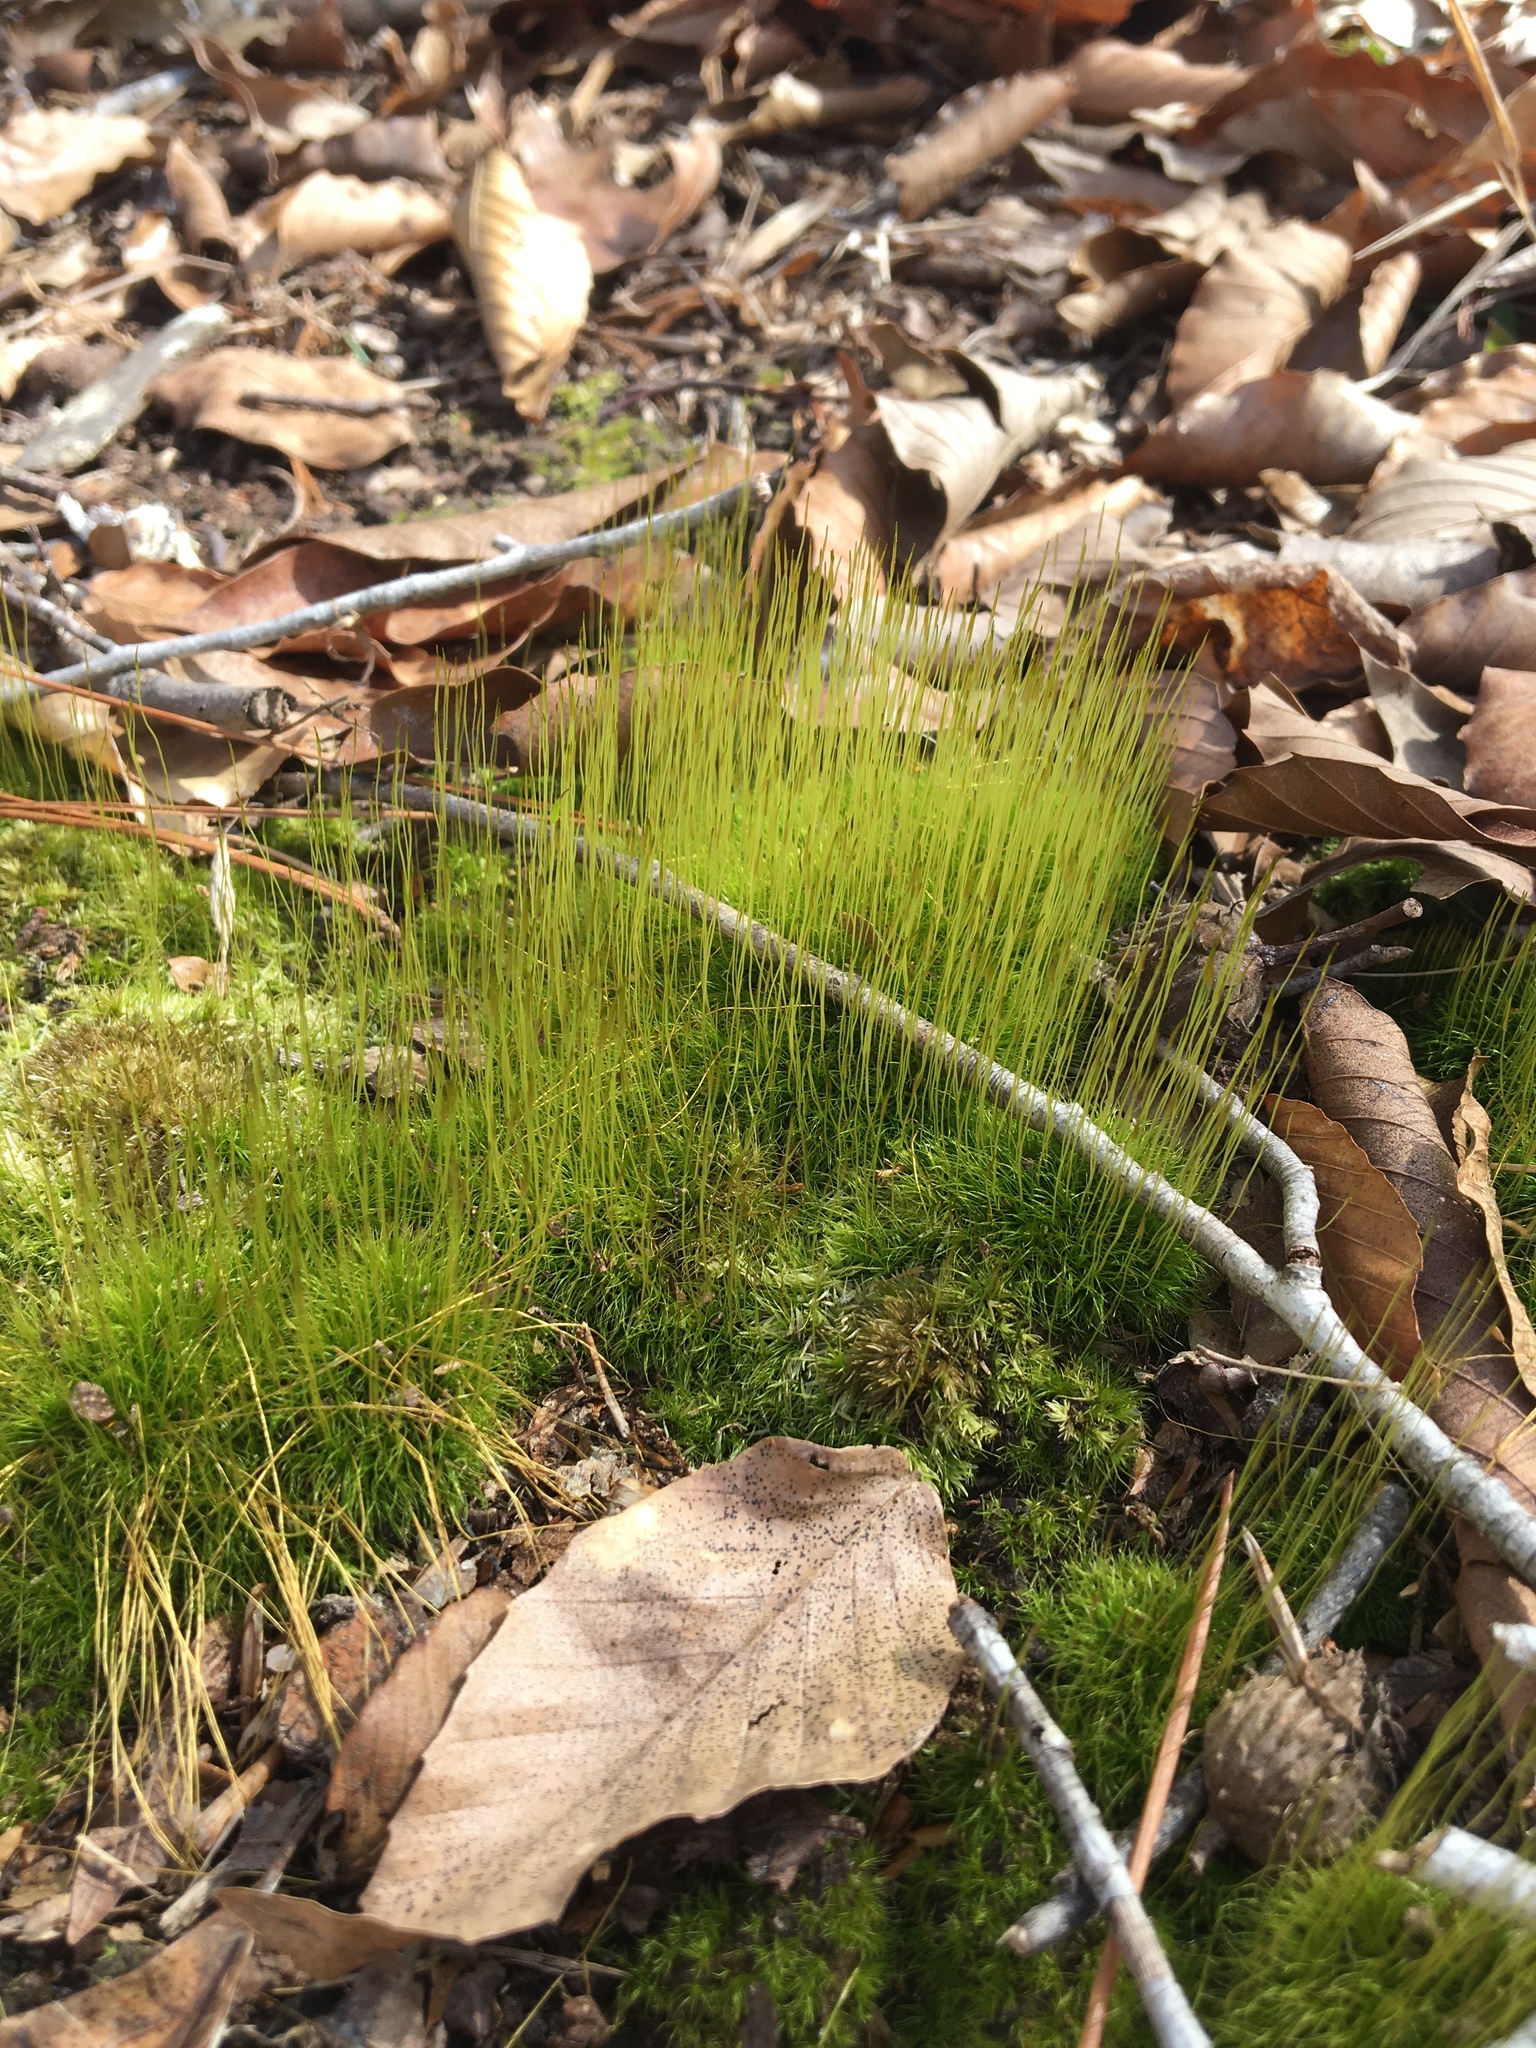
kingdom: Plantae
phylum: Bryophyta
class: Bryopsida
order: Dicranales
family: Dicranaceae
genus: Dicranum
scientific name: Dicranum scoparium
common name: Broom fork-moss
